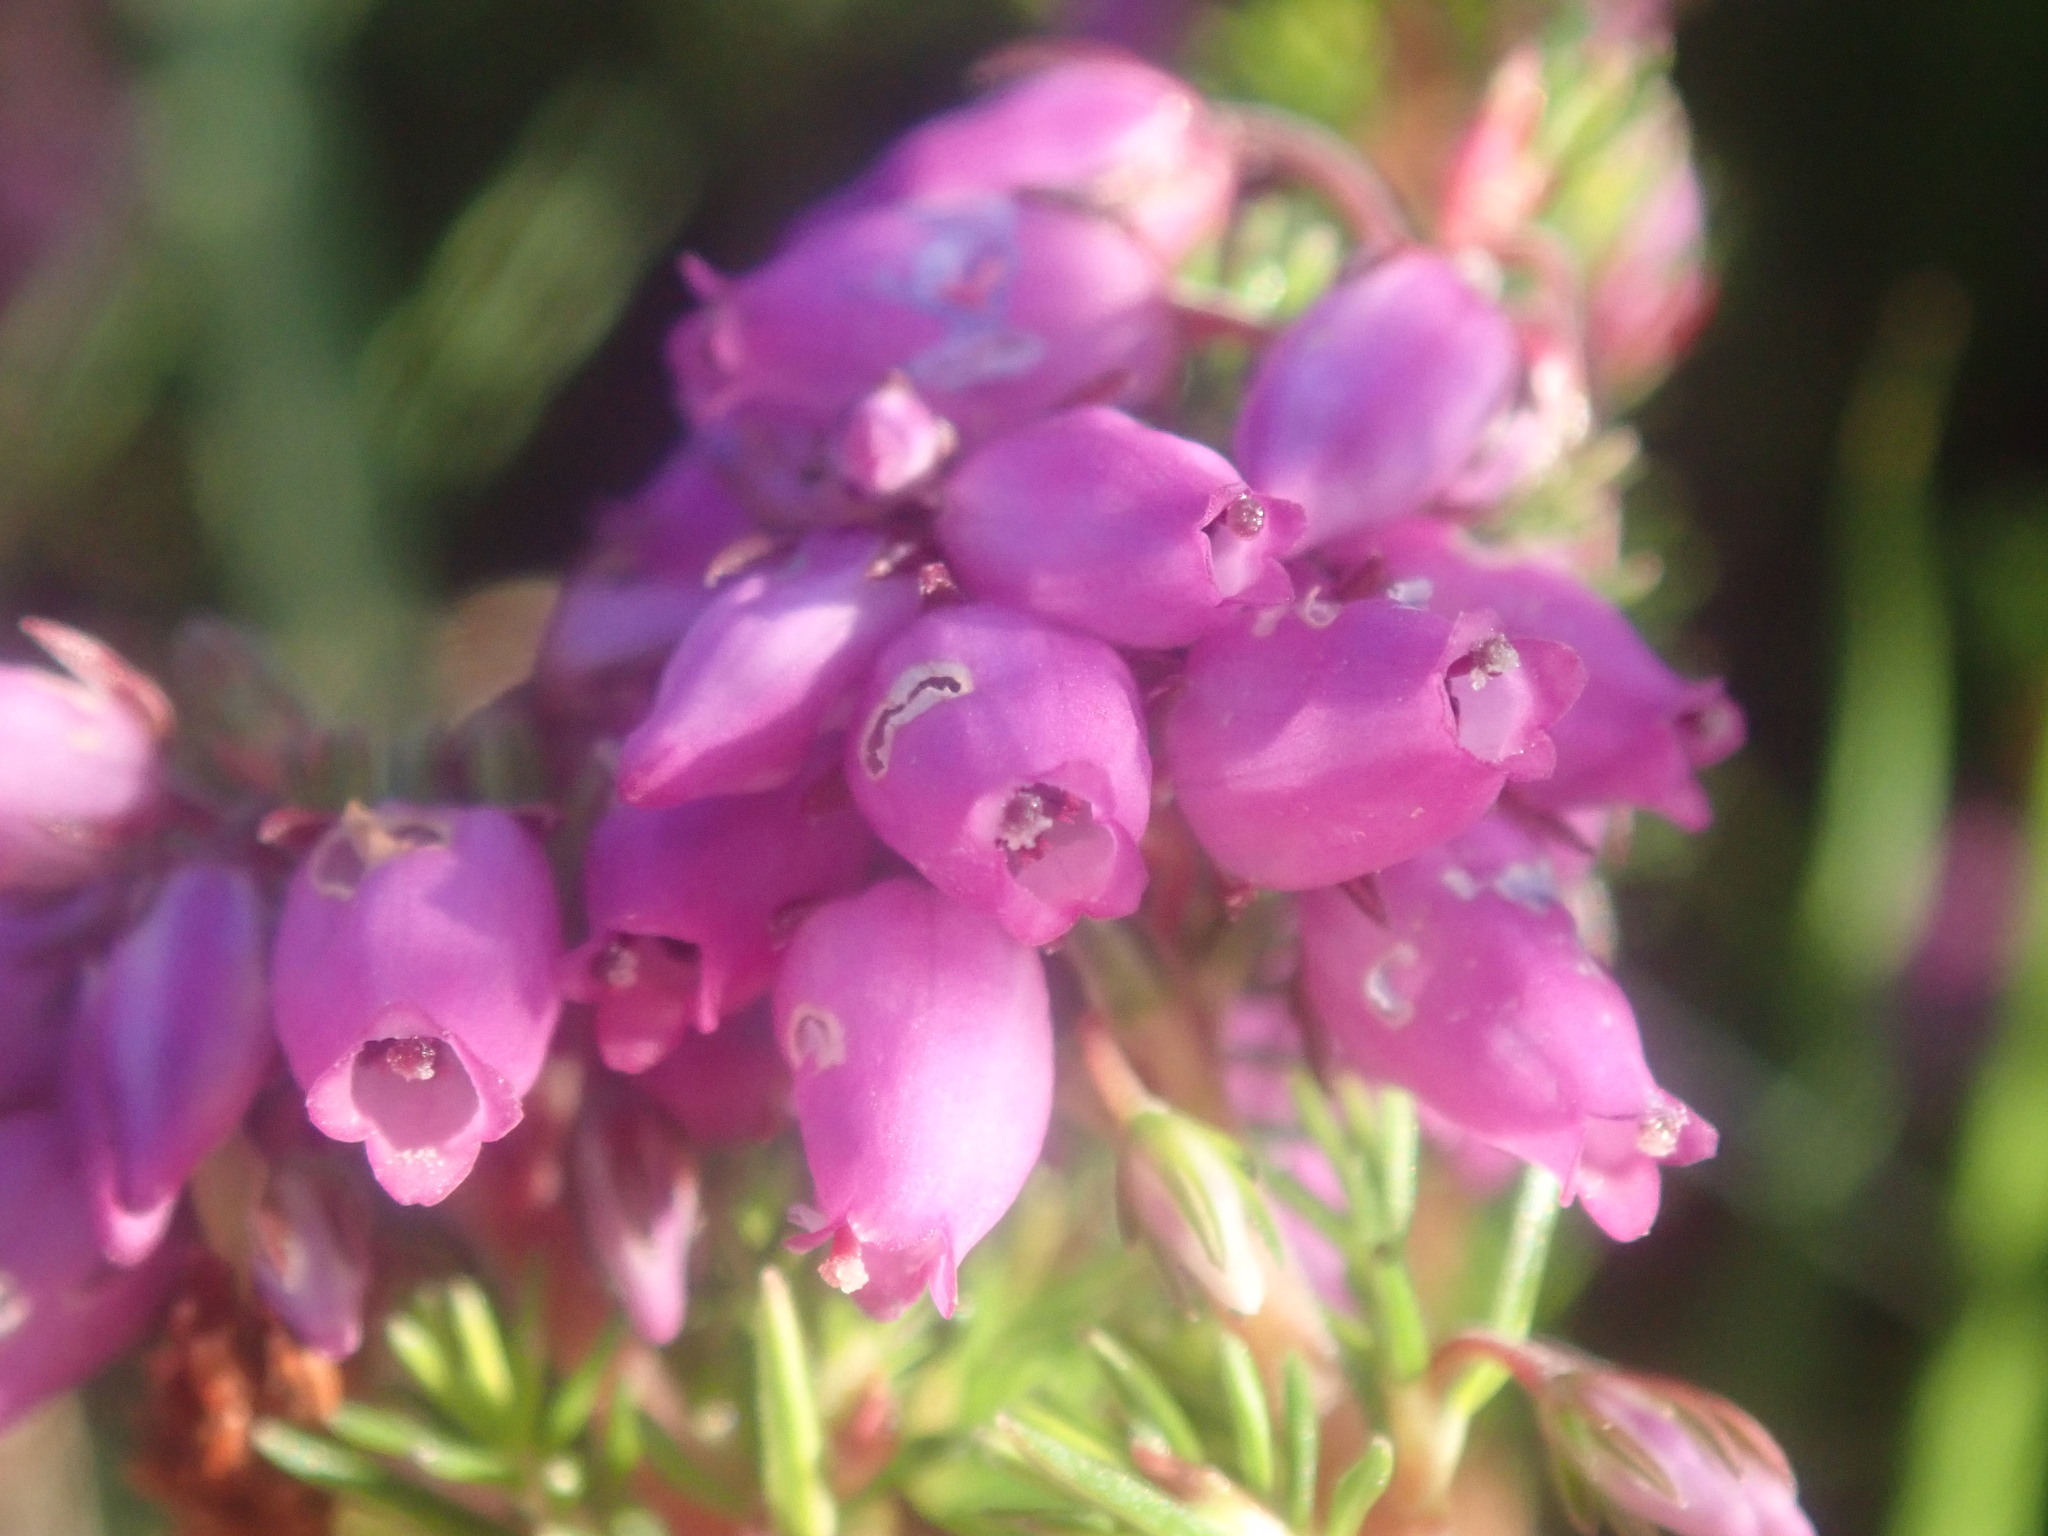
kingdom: Plantae
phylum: Tracheophyta
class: Magnoliopsida
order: Ericales
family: Ericaceae
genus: Erica
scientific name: Erica cinerea
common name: Bell heather
